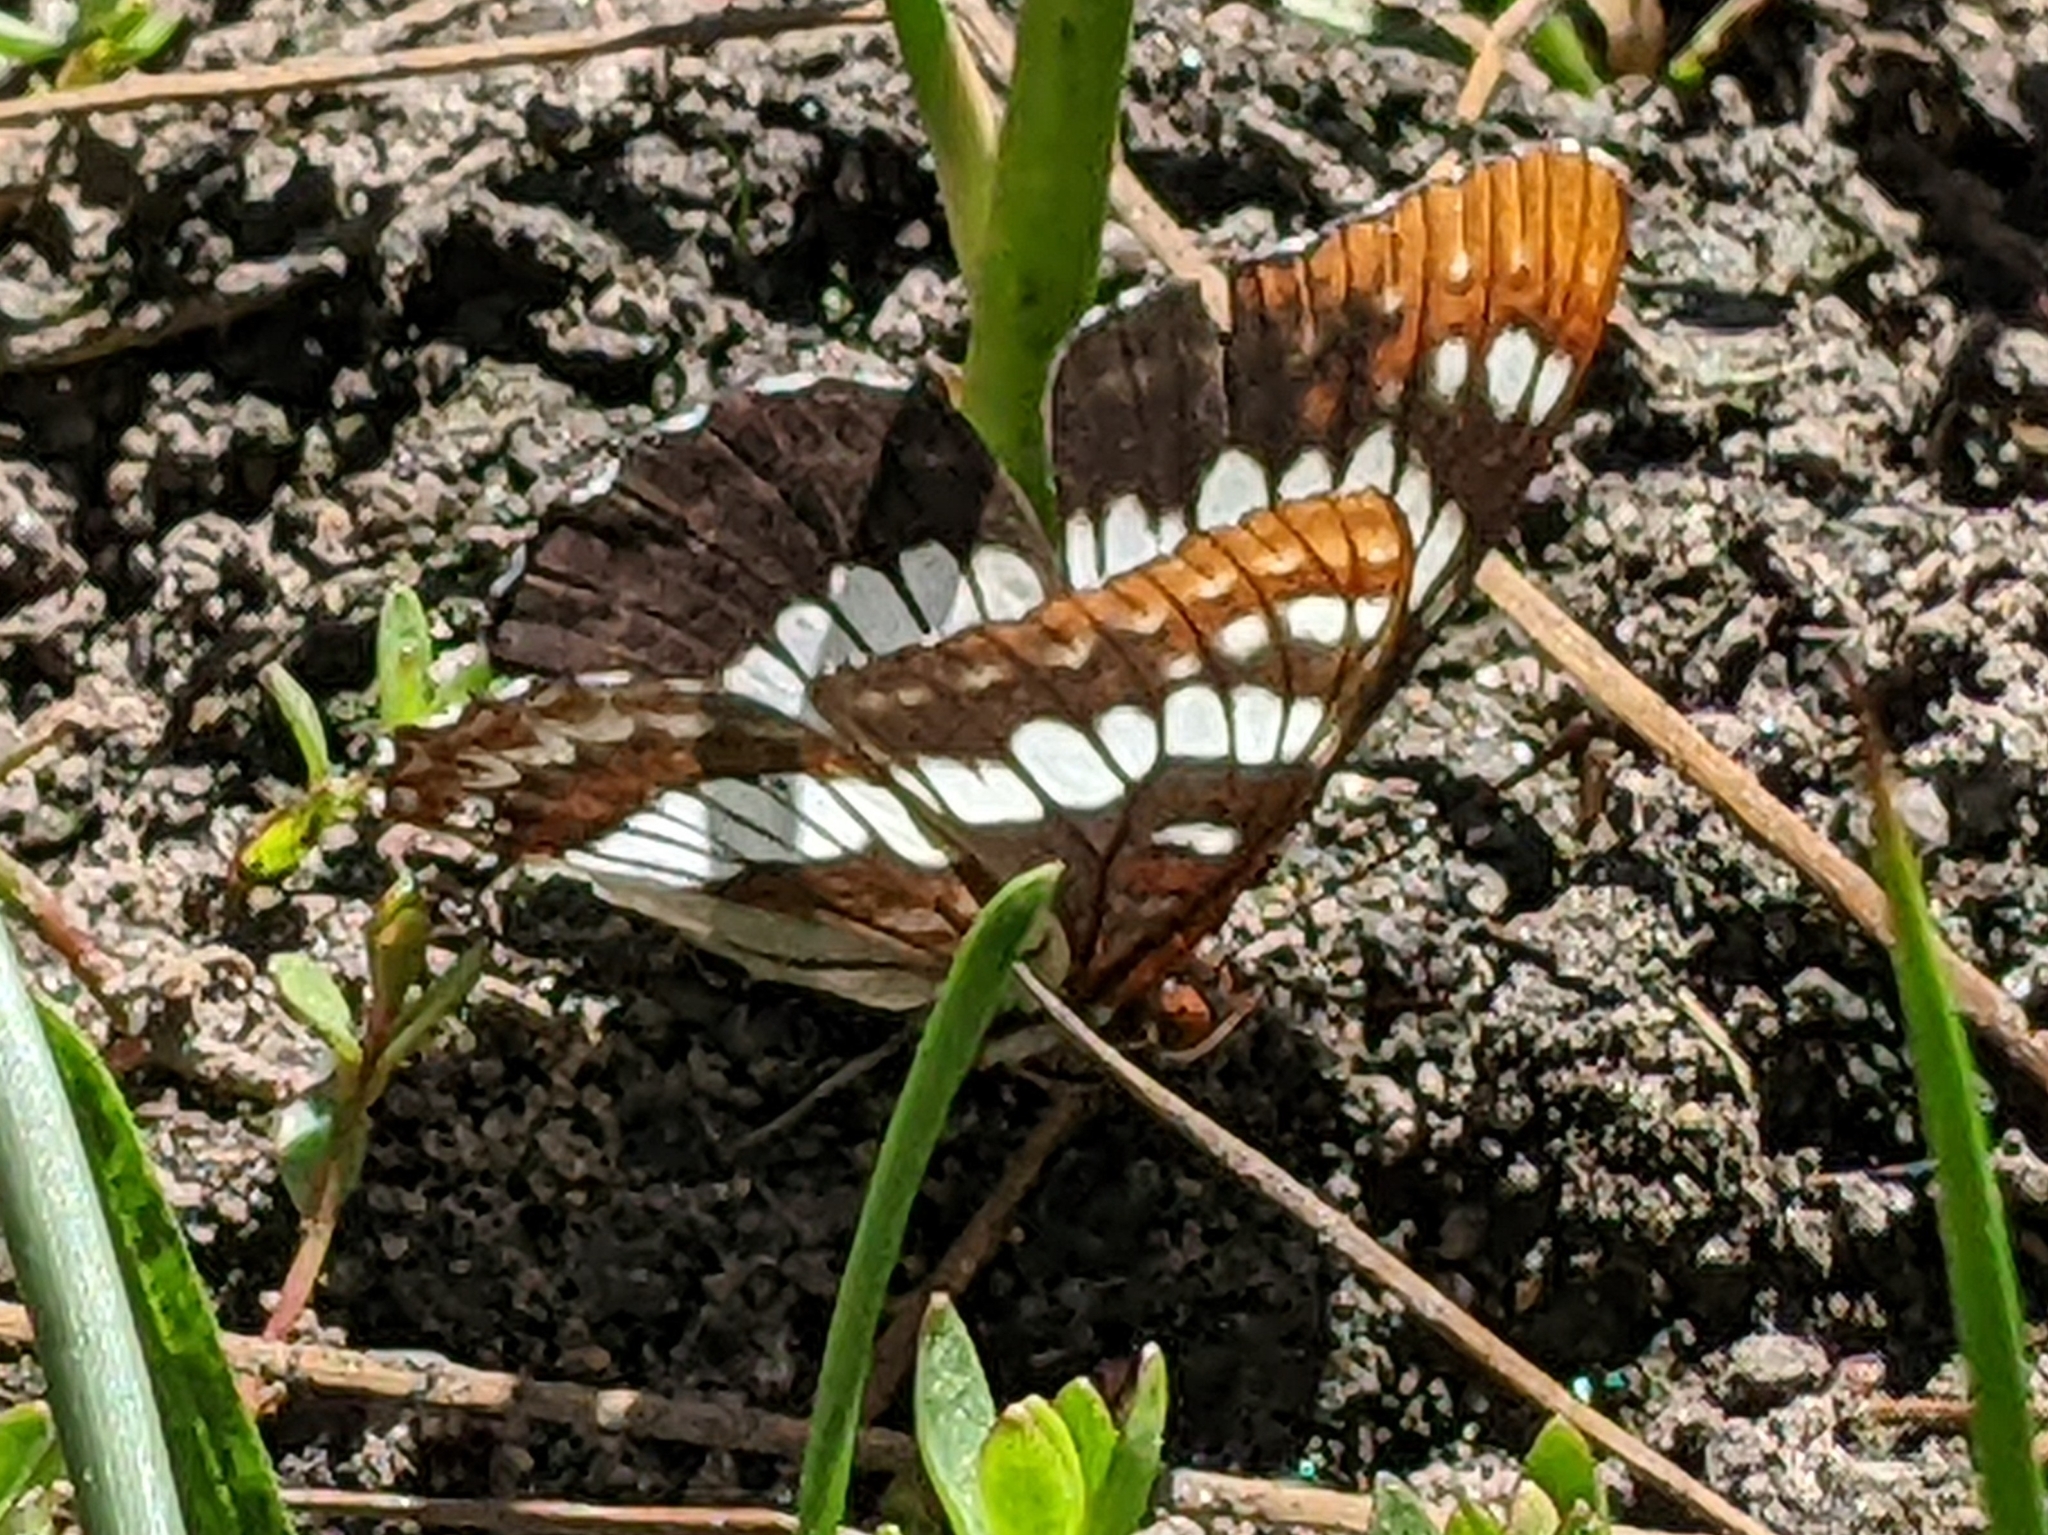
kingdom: Animalia
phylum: Arthropoda
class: Insecta
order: Lepidoptera
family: Nymphalidae
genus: Limenitis
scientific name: Limenitis lorquini
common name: Lorquin's admiral
